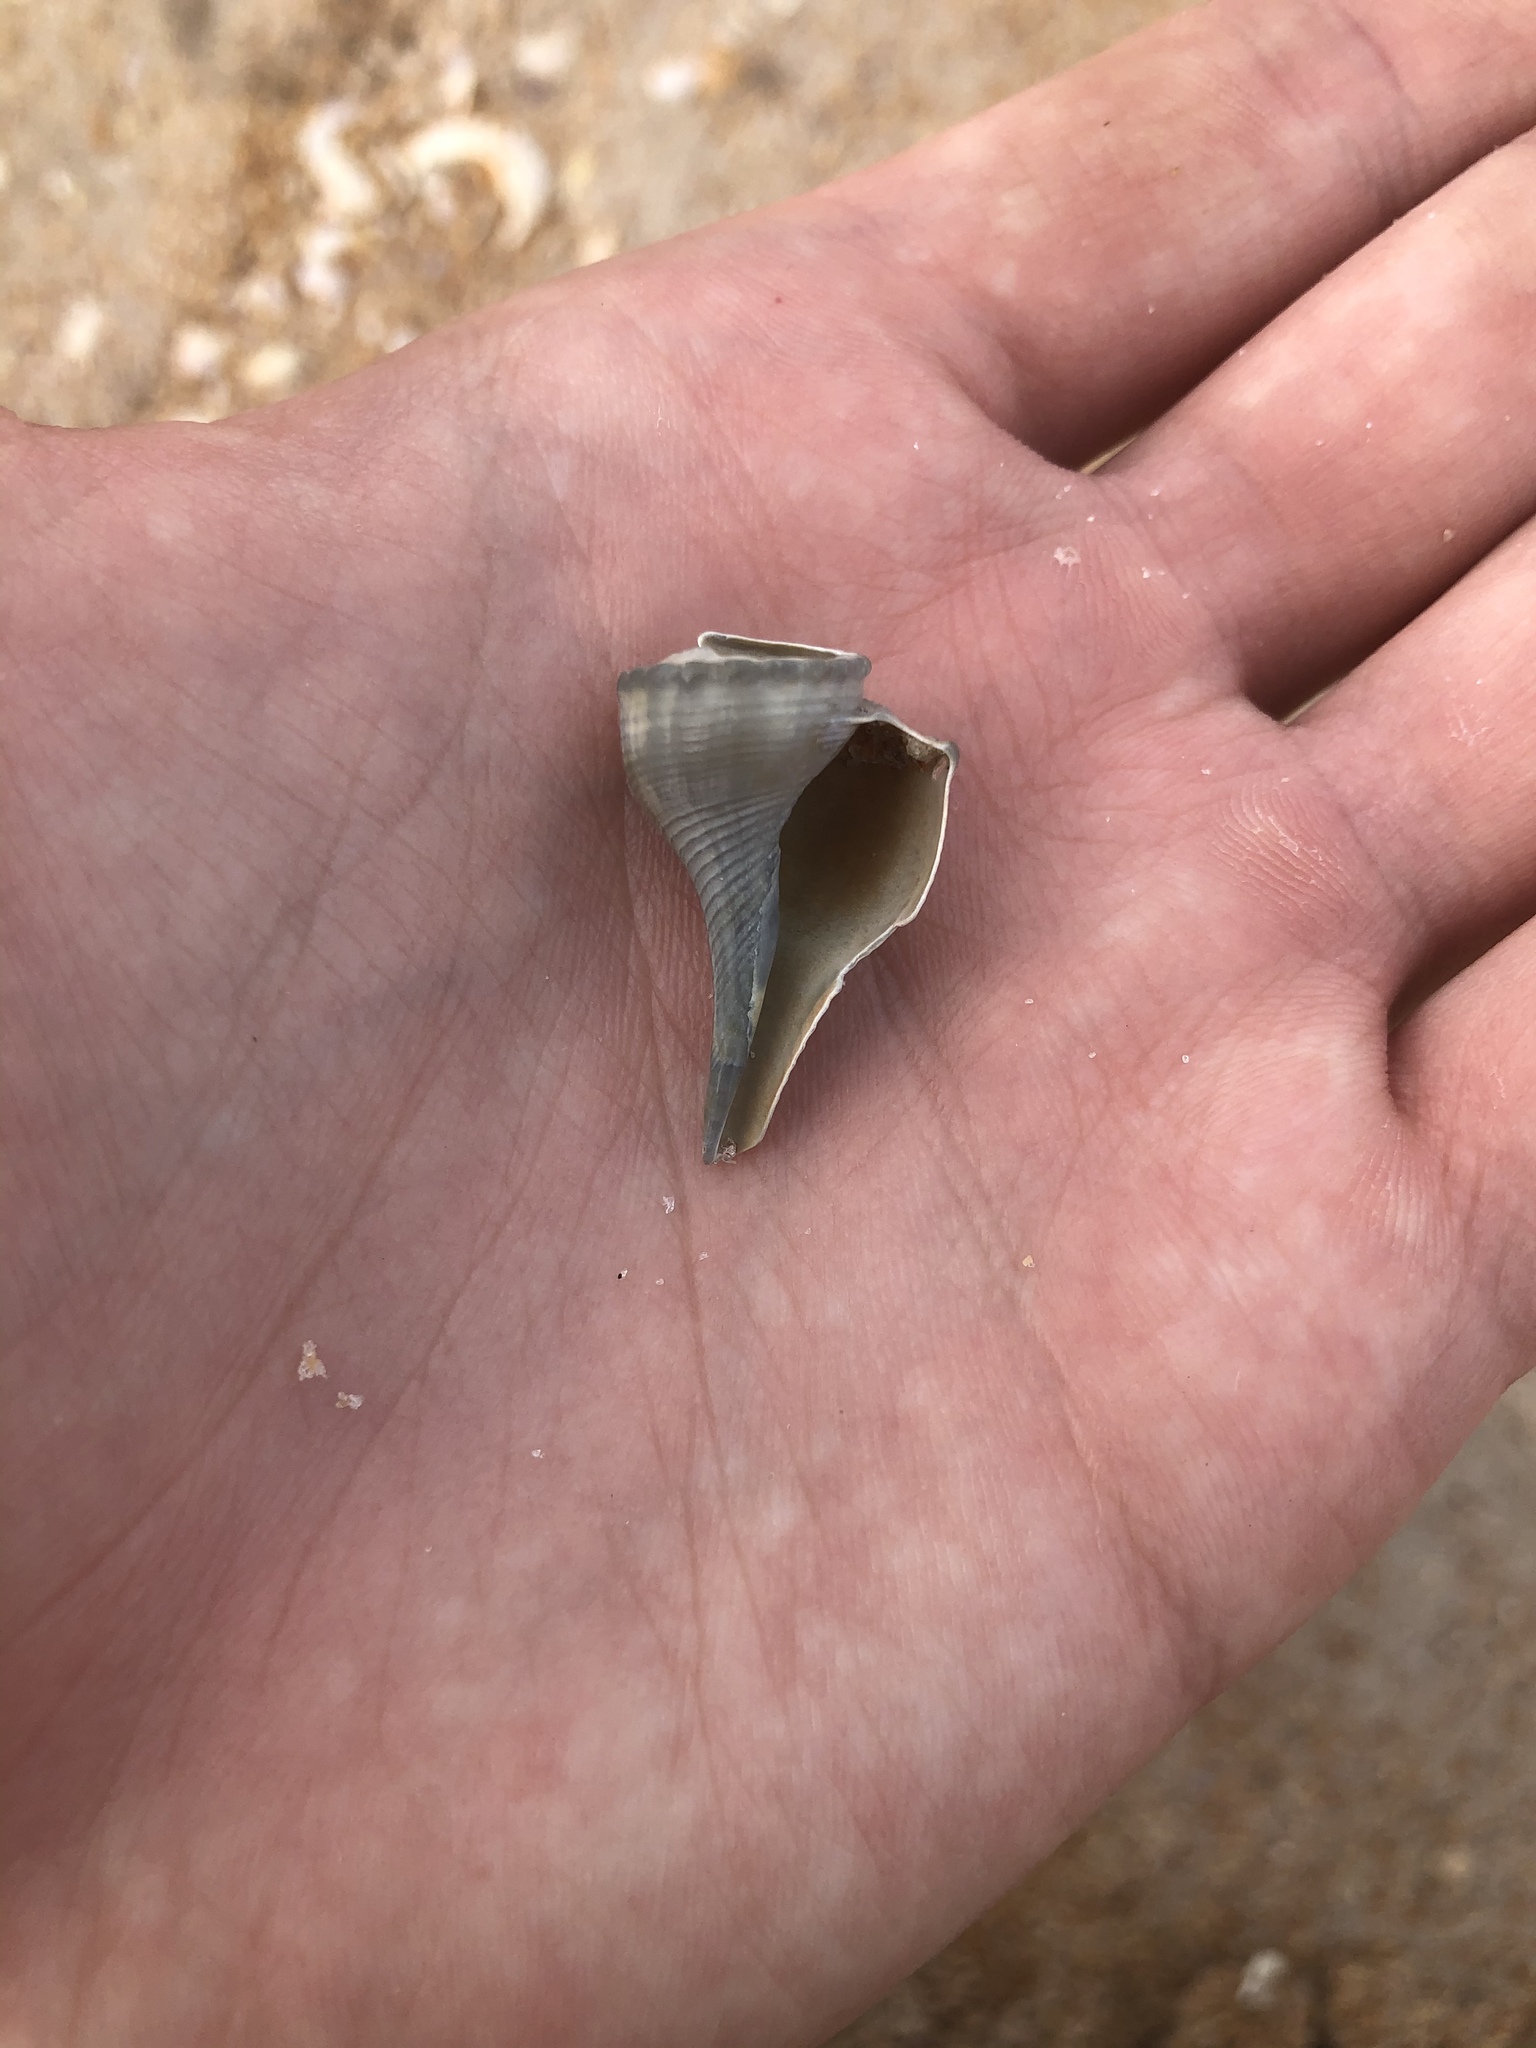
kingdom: Animalia
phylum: Mollusca
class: Gastropoda
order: Neogastropoda
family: Busyconidae
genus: Busycotypus
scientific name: Busycotypus canaliculatus
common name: Channeled whelk
